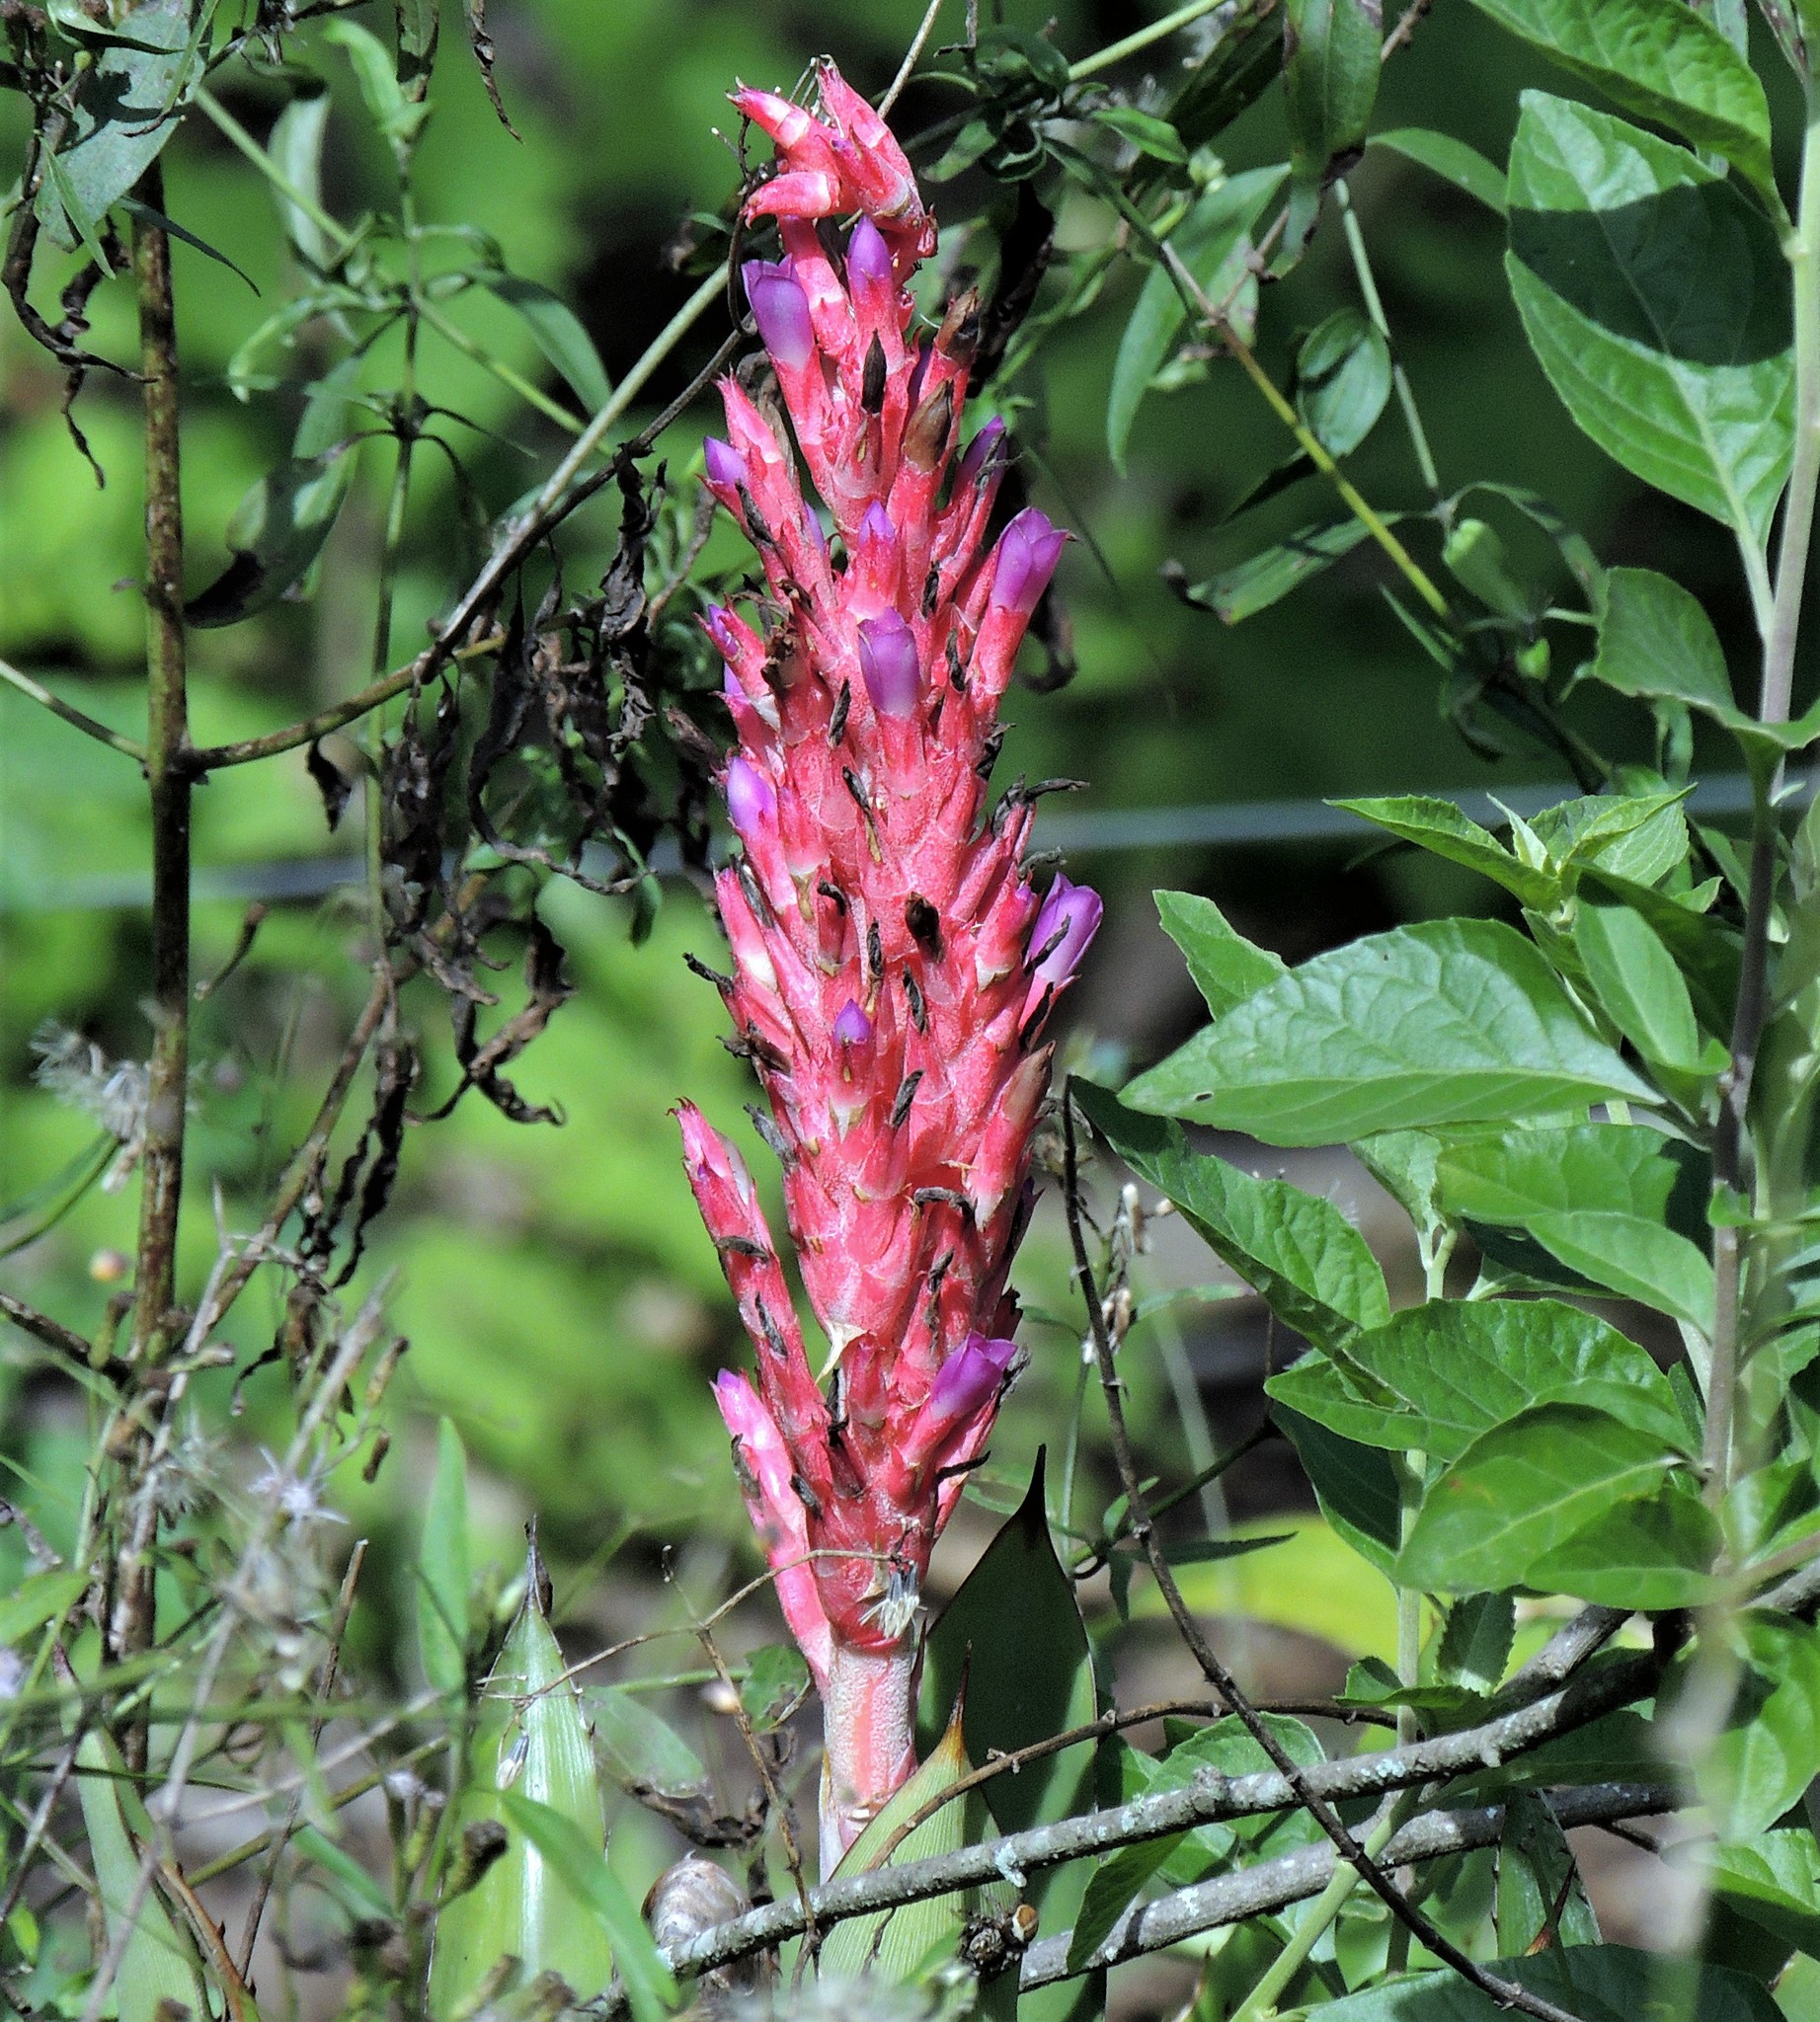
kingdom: Plantae
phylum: Tracheophyta
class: Liliopsida
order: Poales
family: Bromeliaceae
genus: Aechmea
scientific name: Aechmea distichantha
